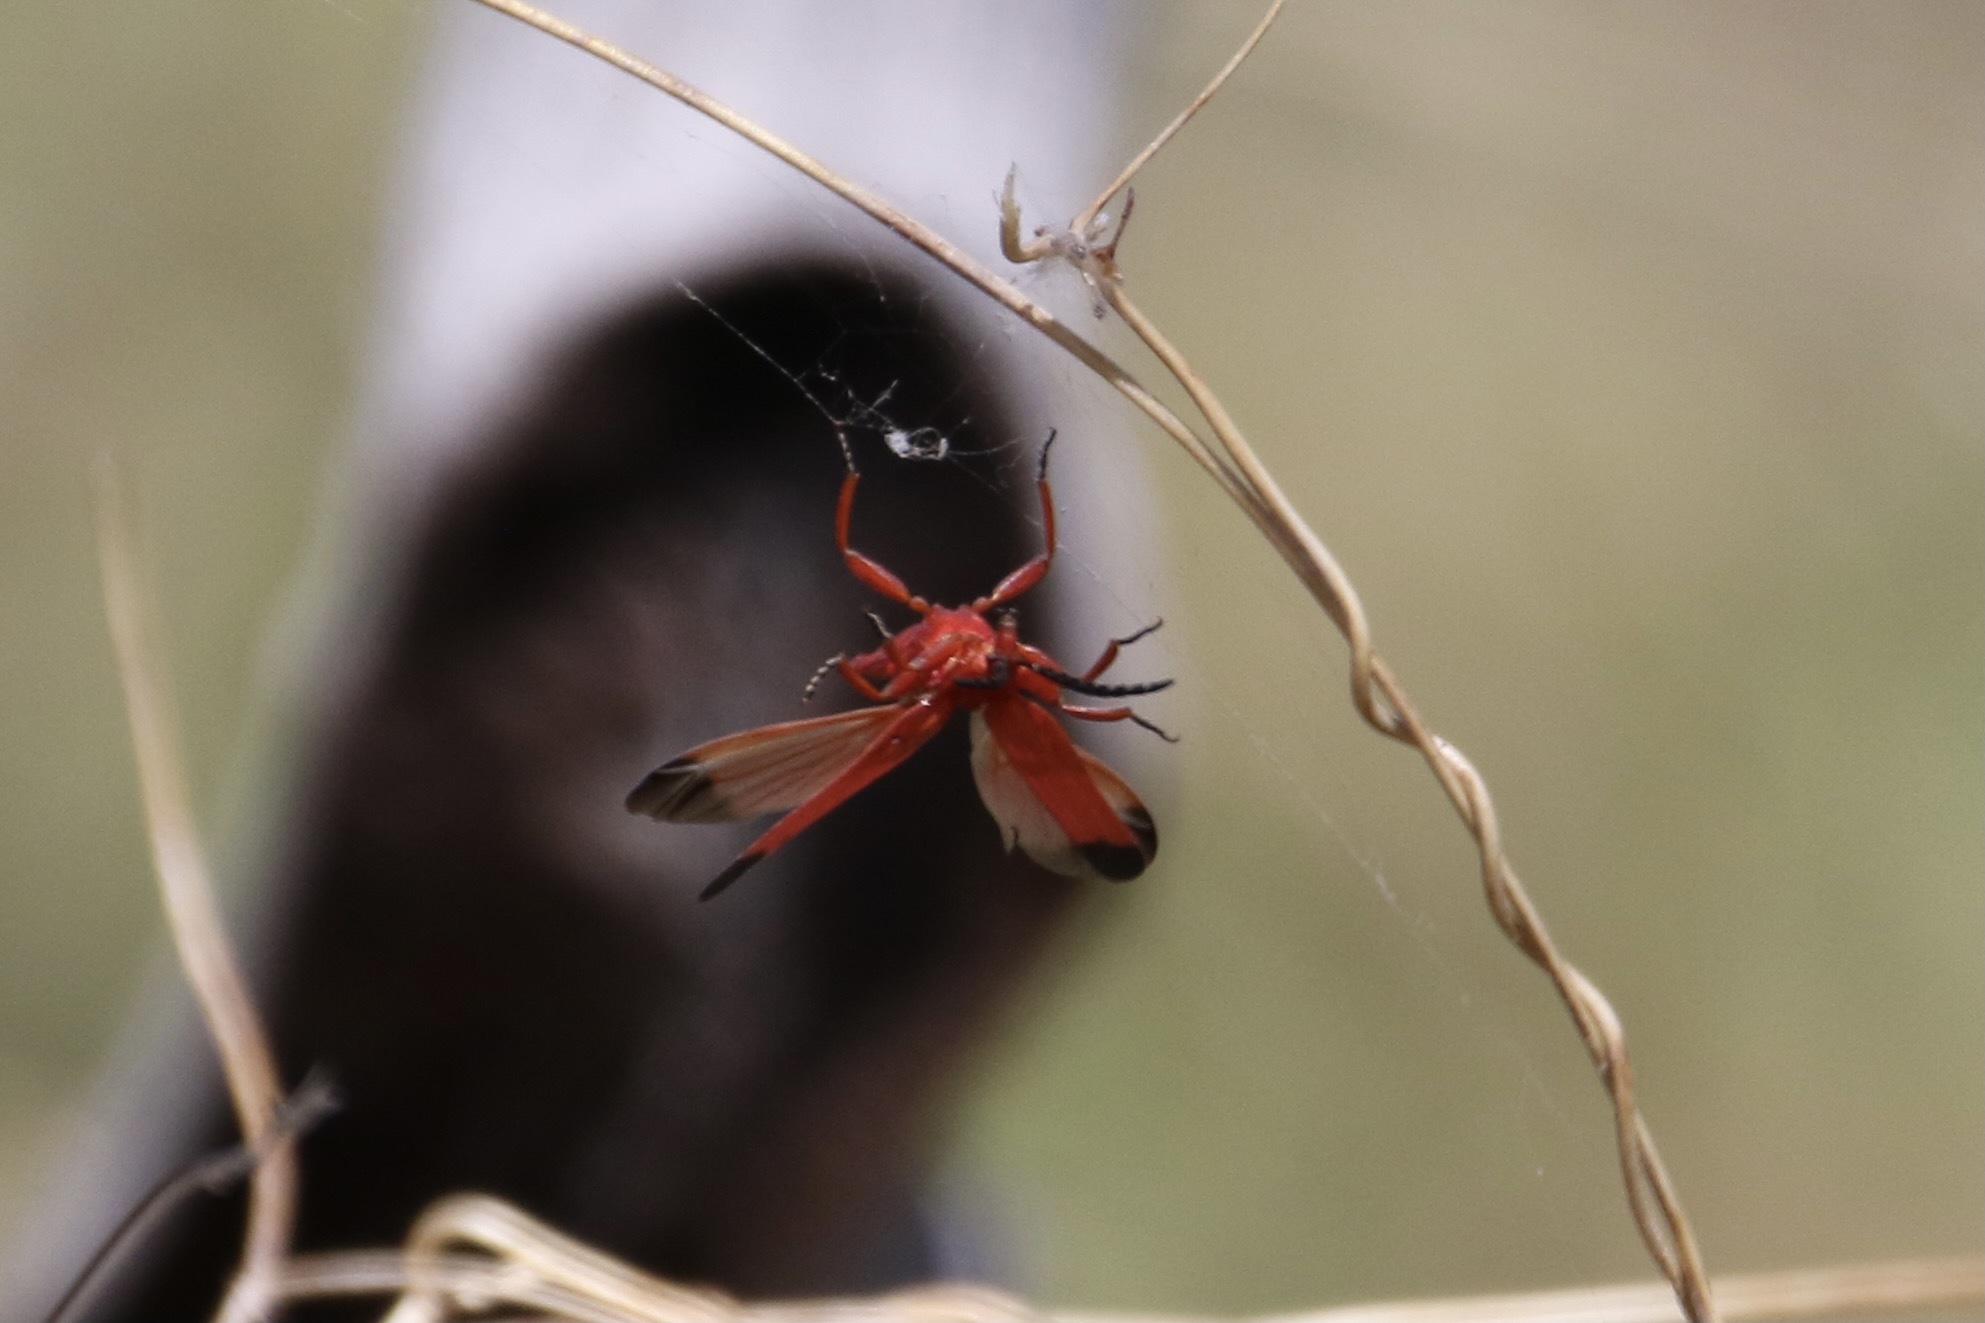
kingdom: Animalia
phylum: Arthropoda
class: Insecta
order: Coleoptera
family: Lycidae
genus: Lycus
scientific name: Lycus sanguineus
